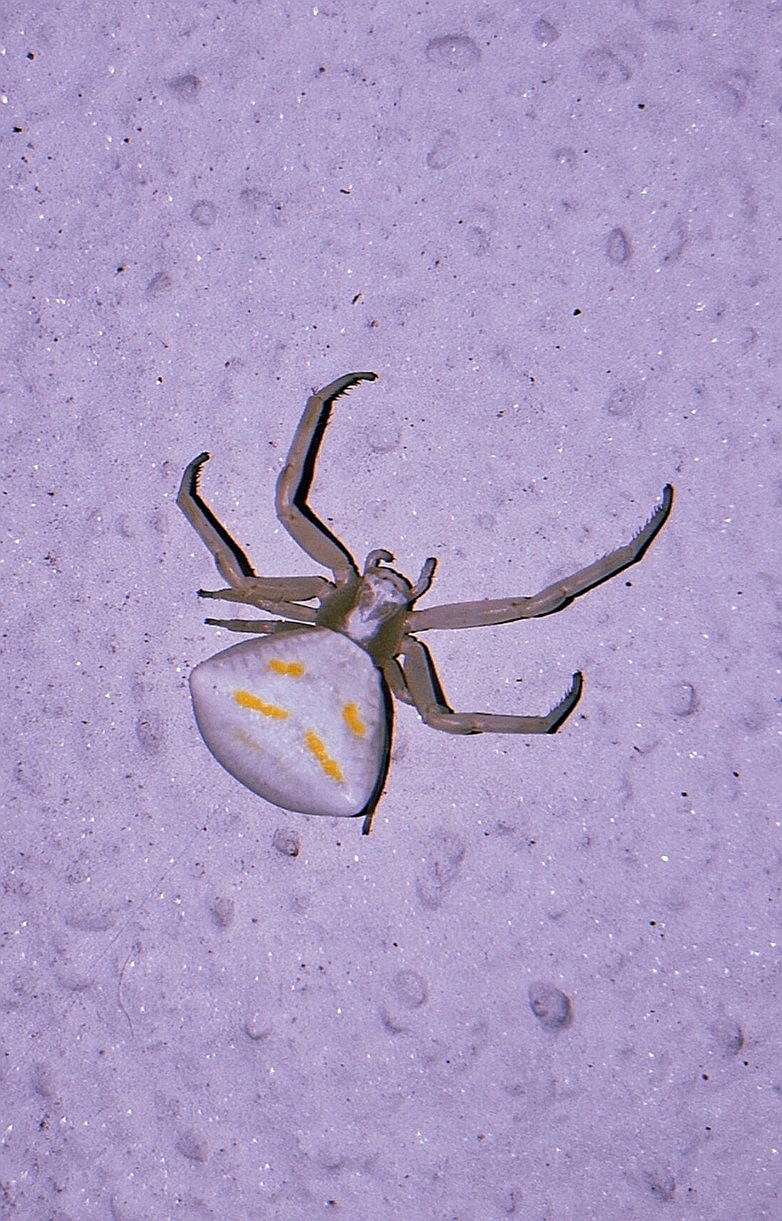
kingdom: Animalia
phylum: Arthropoda
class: Arachnida
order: Araneae
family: Thomisidae
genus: Thomisus
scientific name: Thomisus onustus
